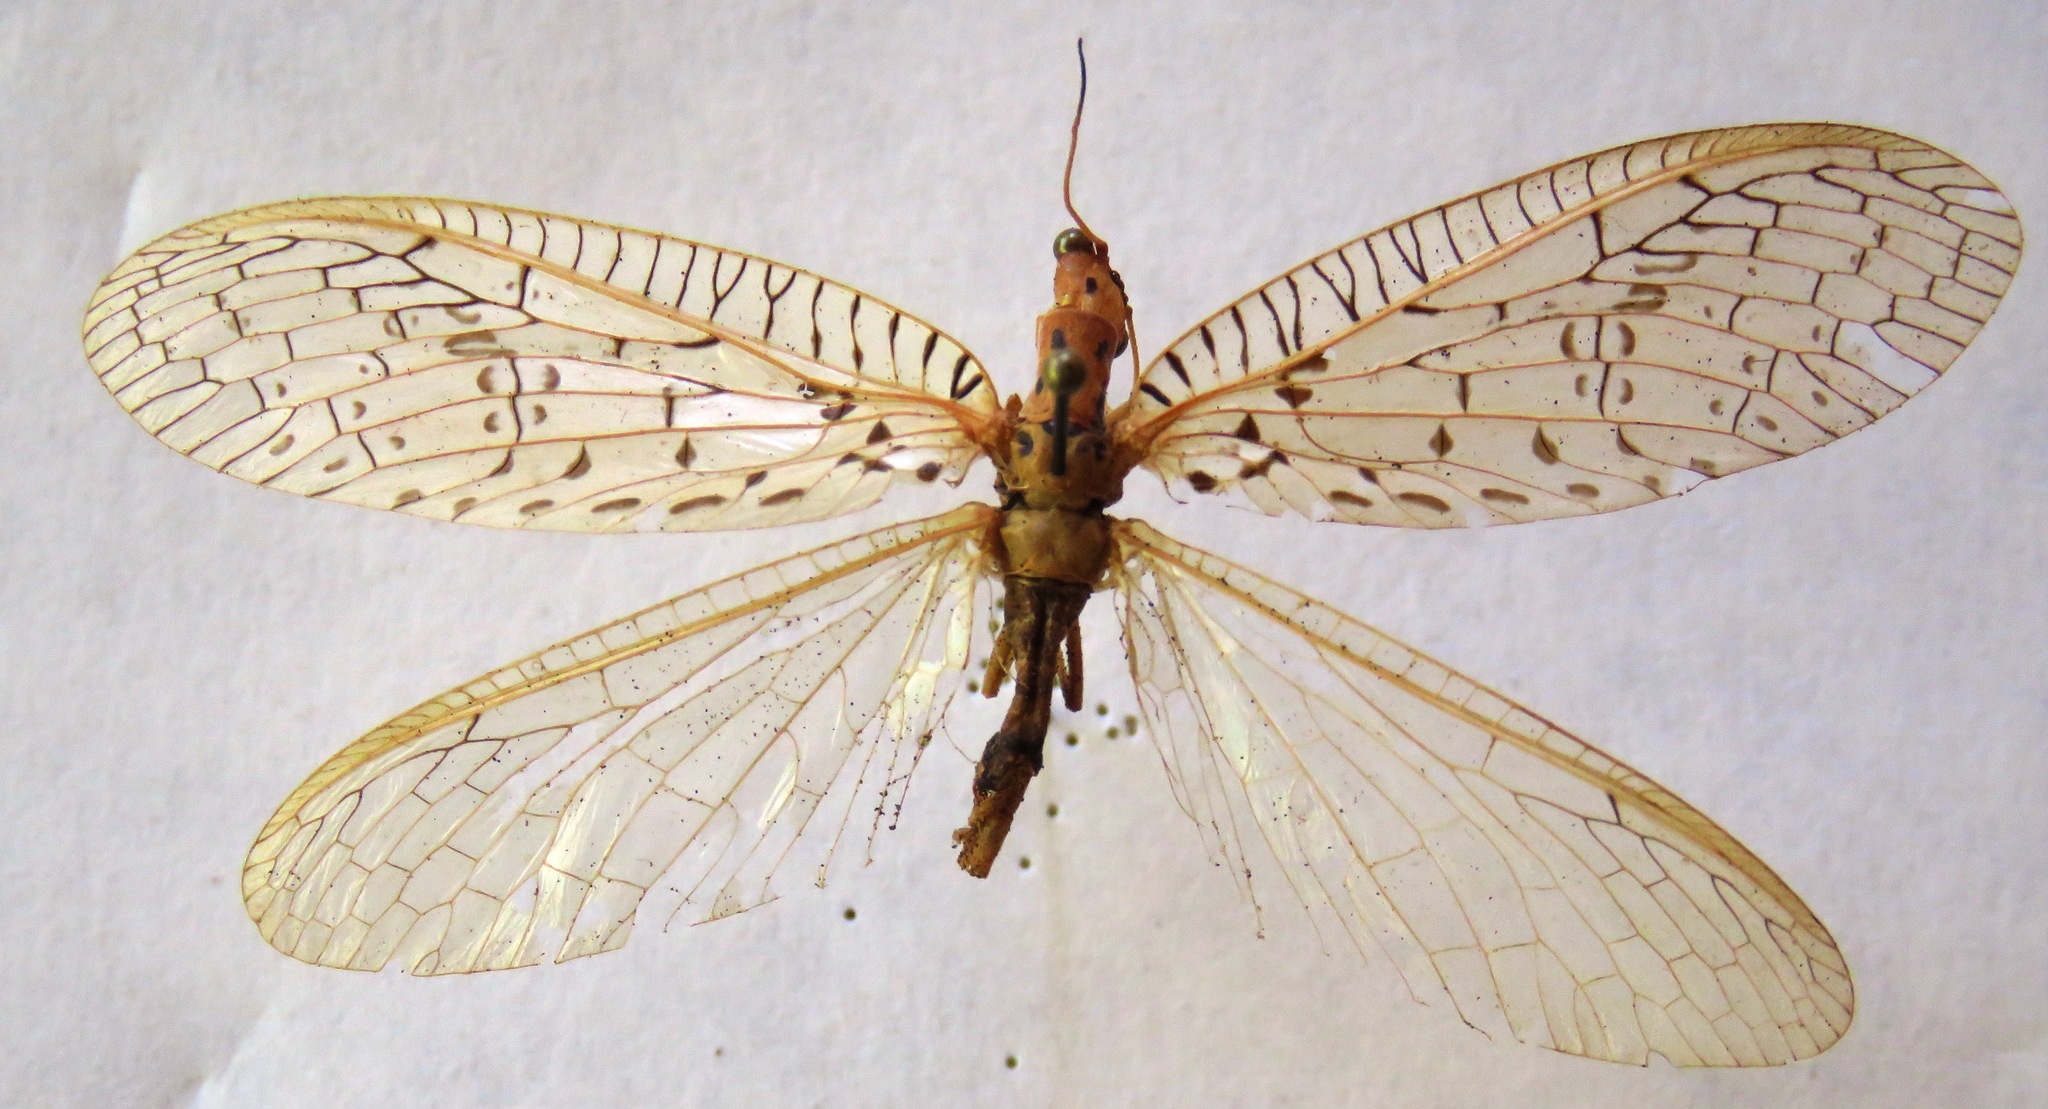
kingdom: Animalia
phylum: Arthropoda
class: Insecta
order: Megaloptera
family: Corydalidae
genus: Chloronia
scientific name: Chloronia mirifica
